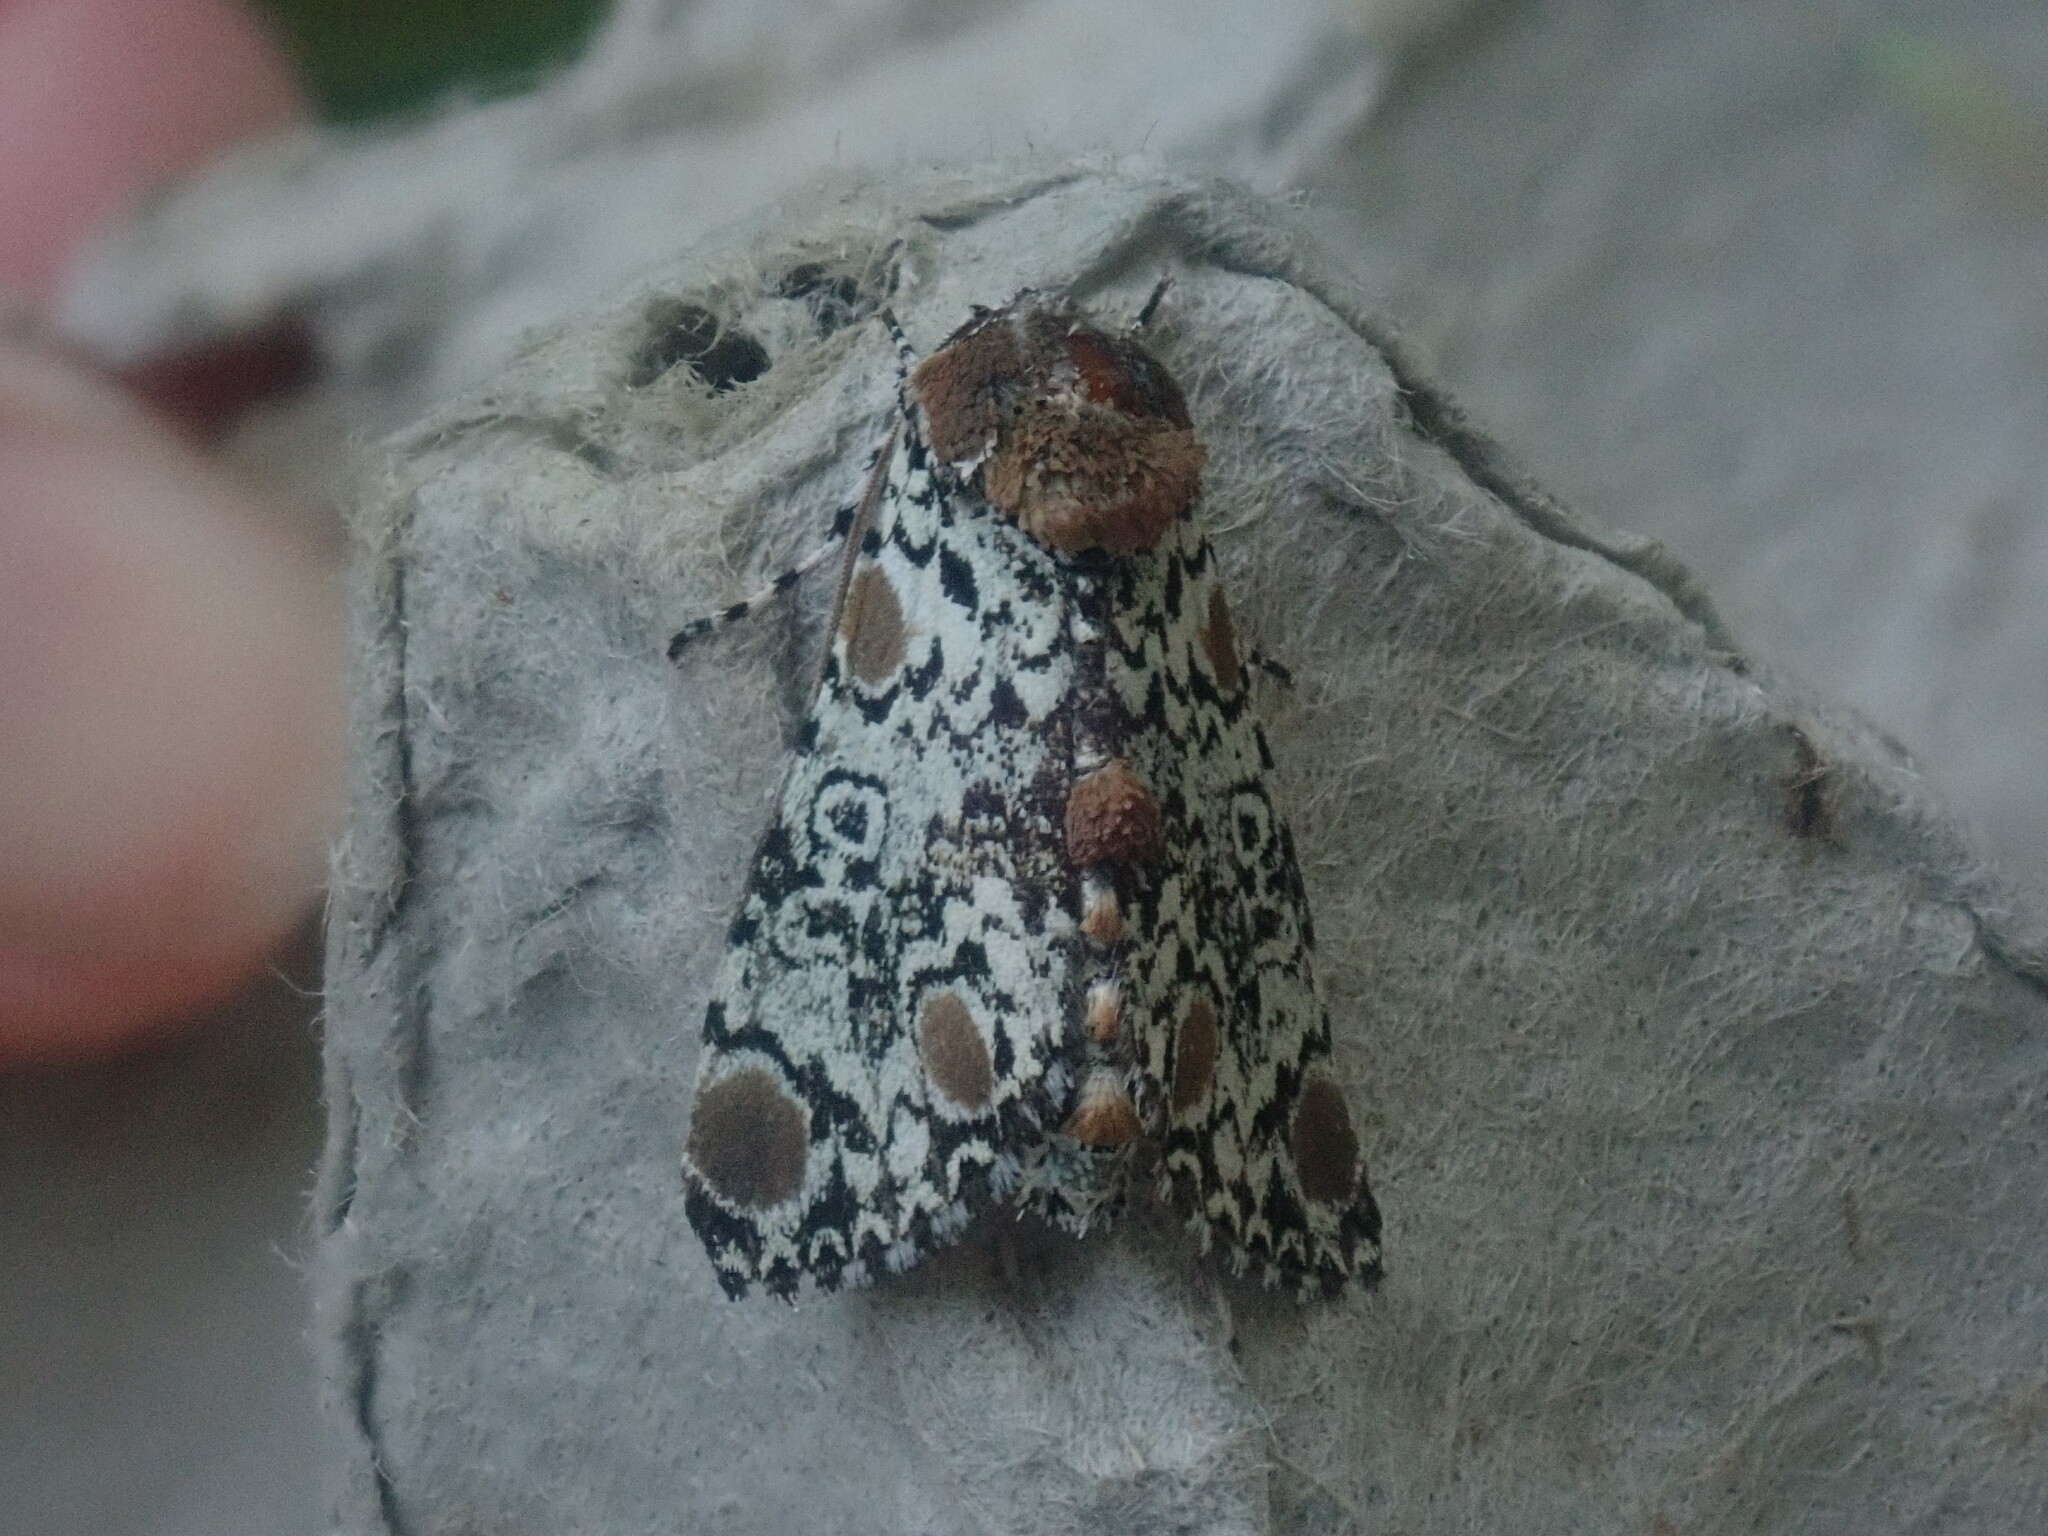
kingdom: Animalia
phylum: Arthropoda
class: Insecta
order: Lepidoptera
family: Noctuidae
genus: Harrisimemna
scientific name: Harrisimemna trisignata
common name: Harris threespot
